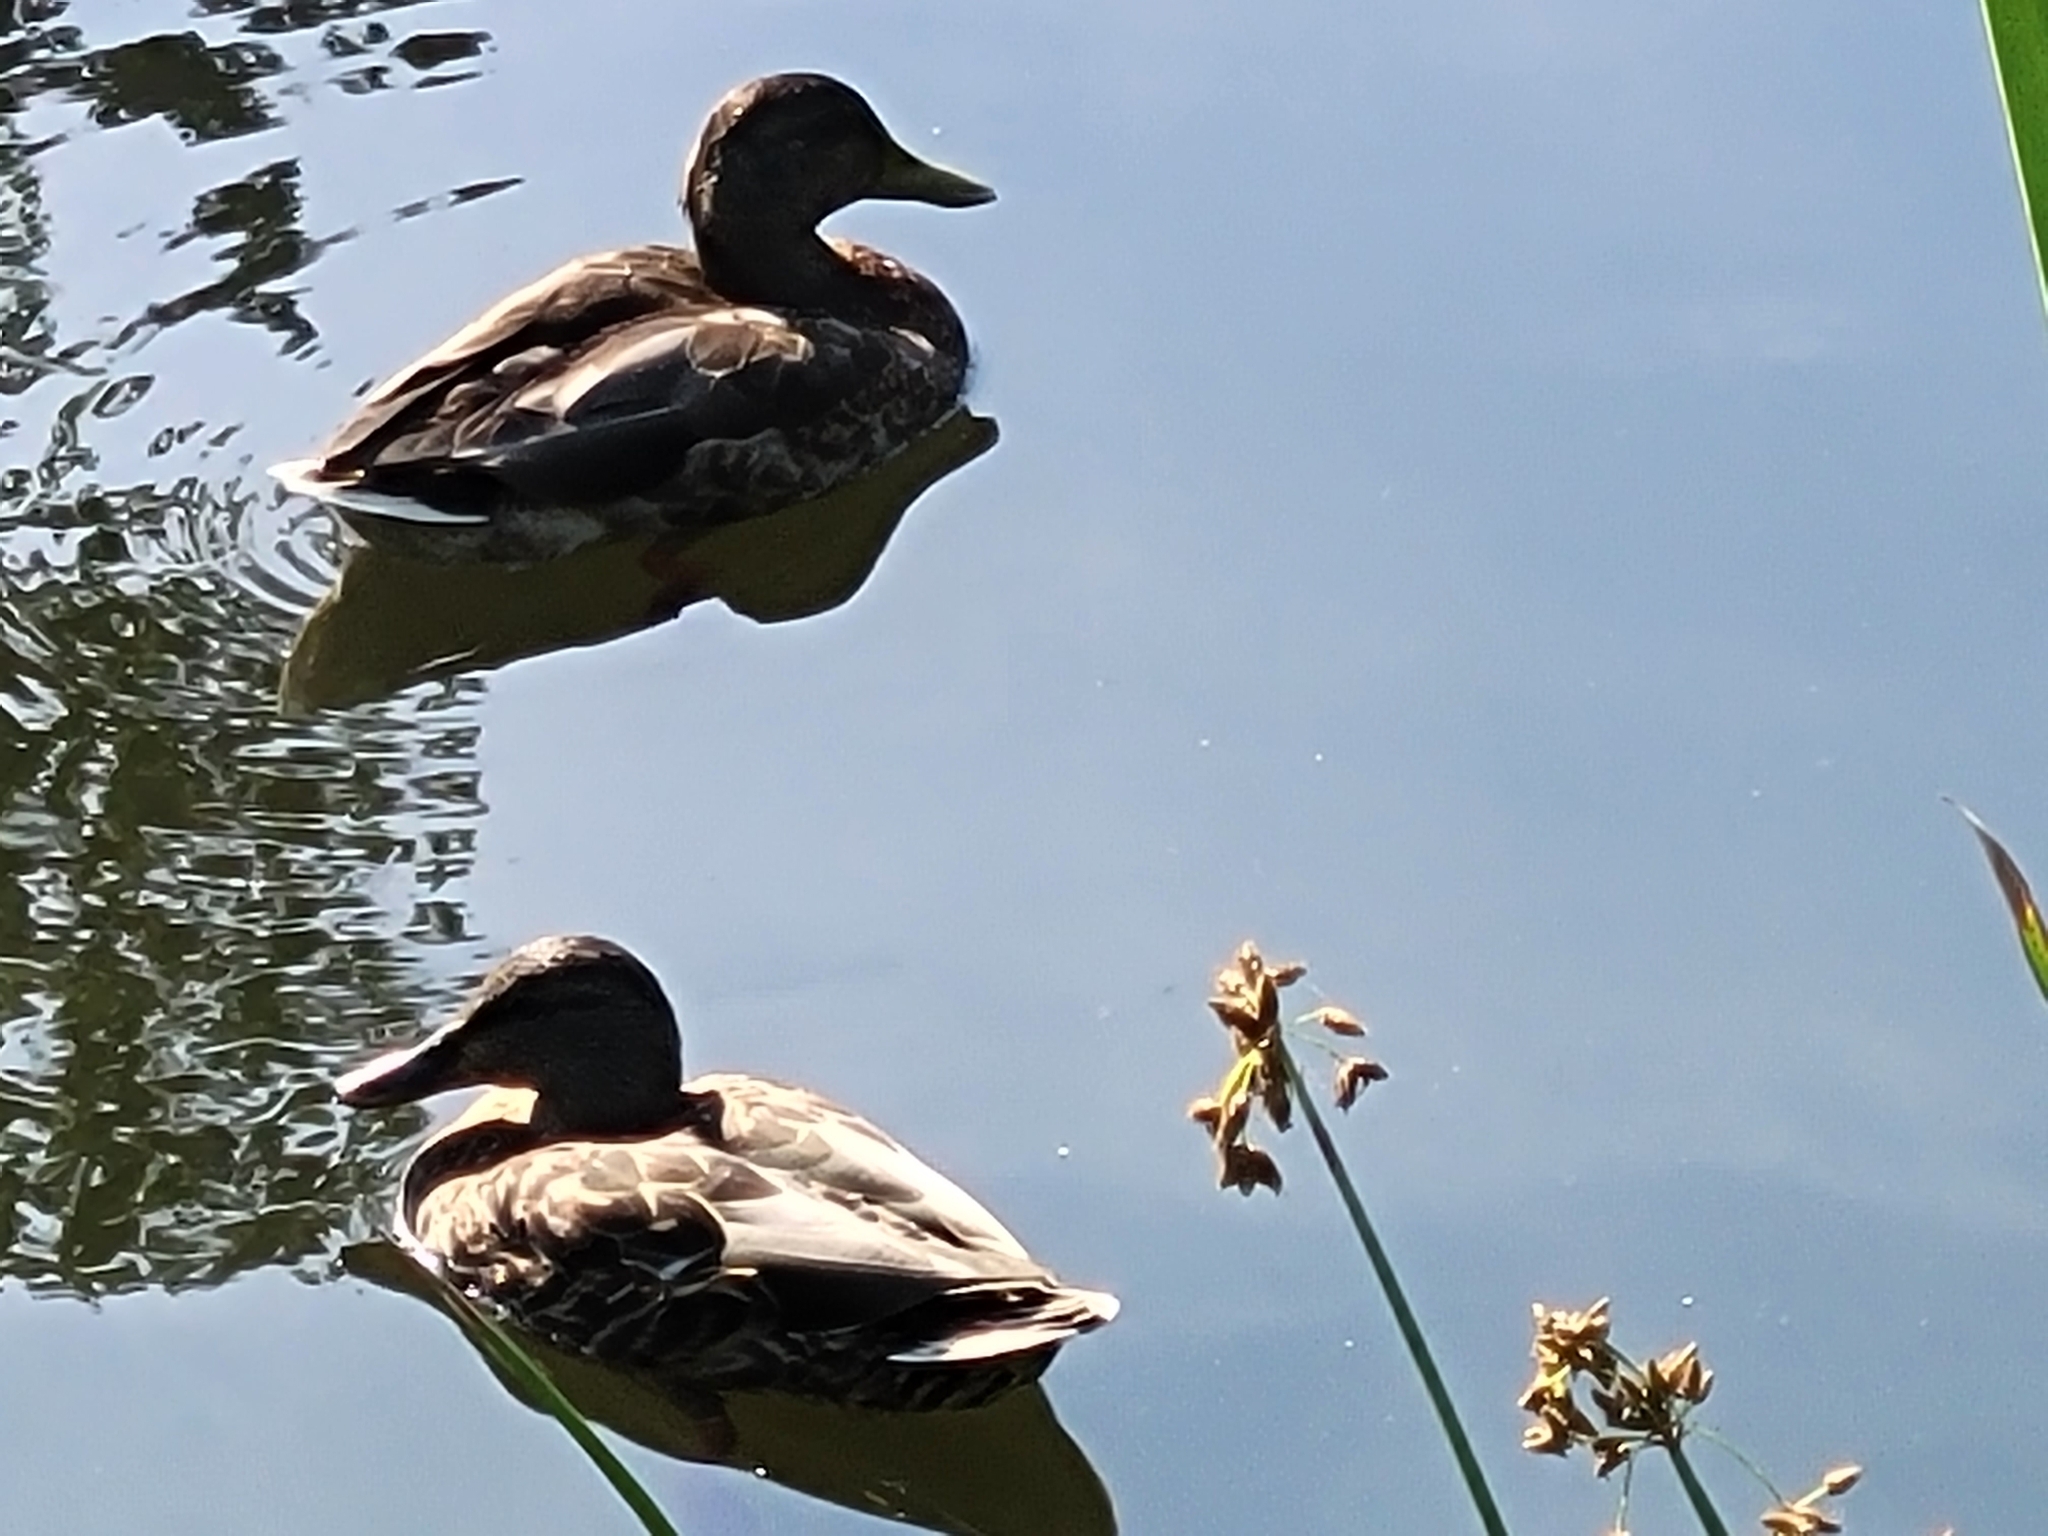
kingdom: Animalia
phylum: Chordata
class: Aves
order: Anseriformes
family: Anatidae
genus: Anas
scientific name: Anas platyrhynchos
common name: Mallard
